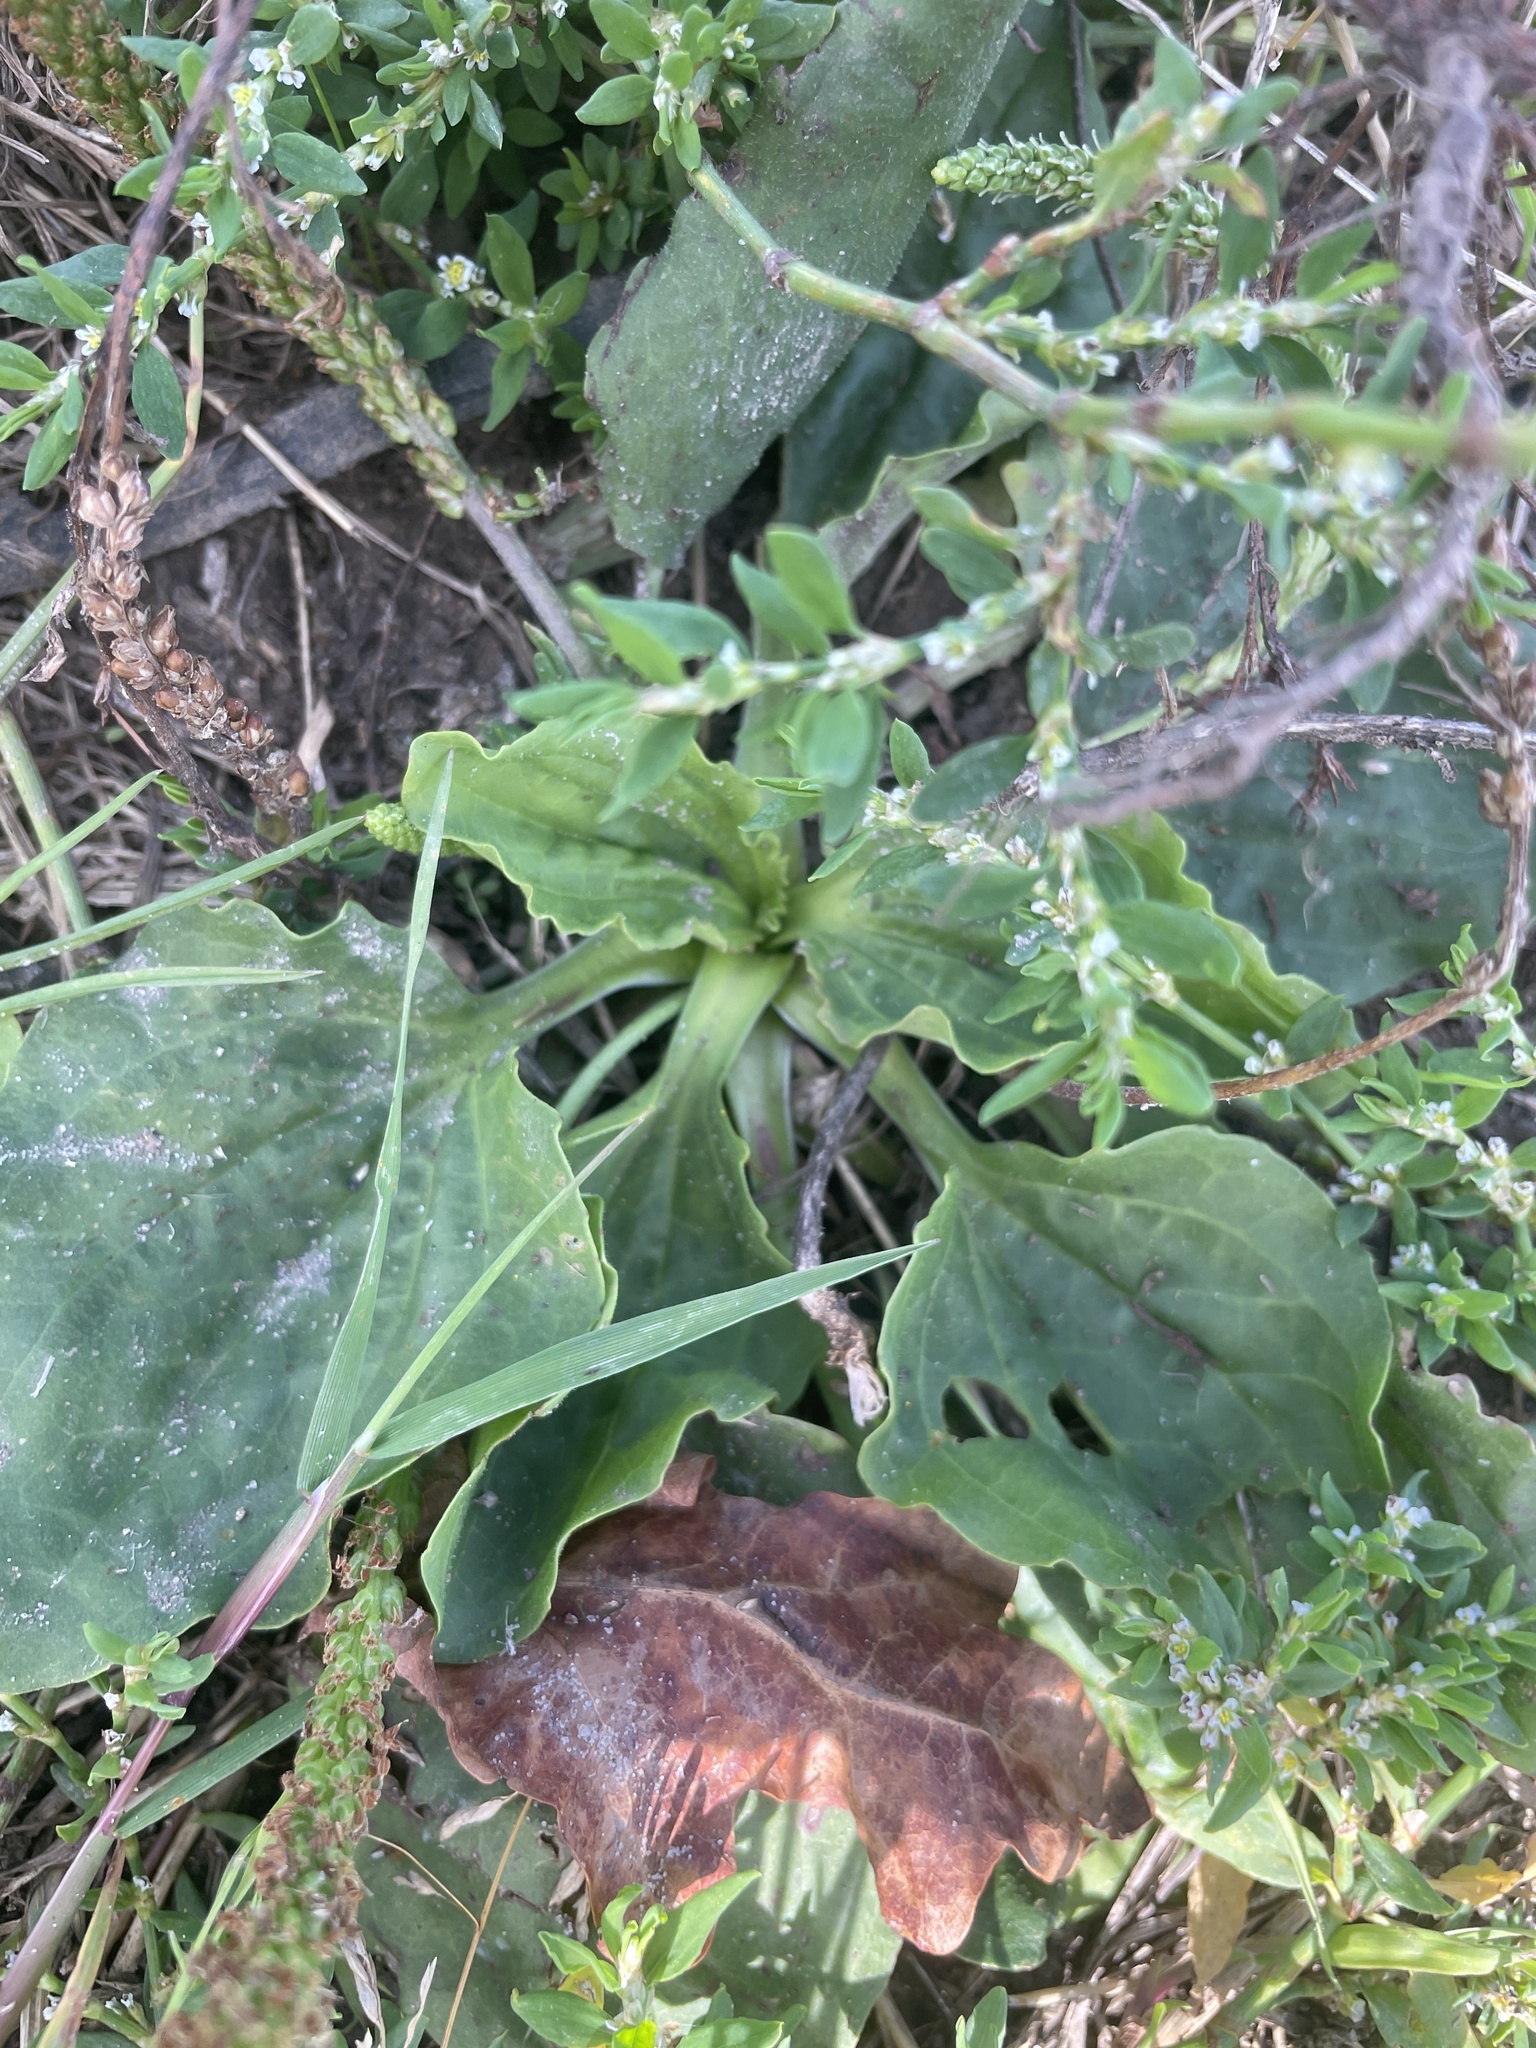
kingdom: Plantae
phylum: Tracheophyta
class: Magnoliopsida
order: Lamiales
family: Plantaginaceae
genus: Plantago
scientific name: Plantago major
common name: Common plantain
